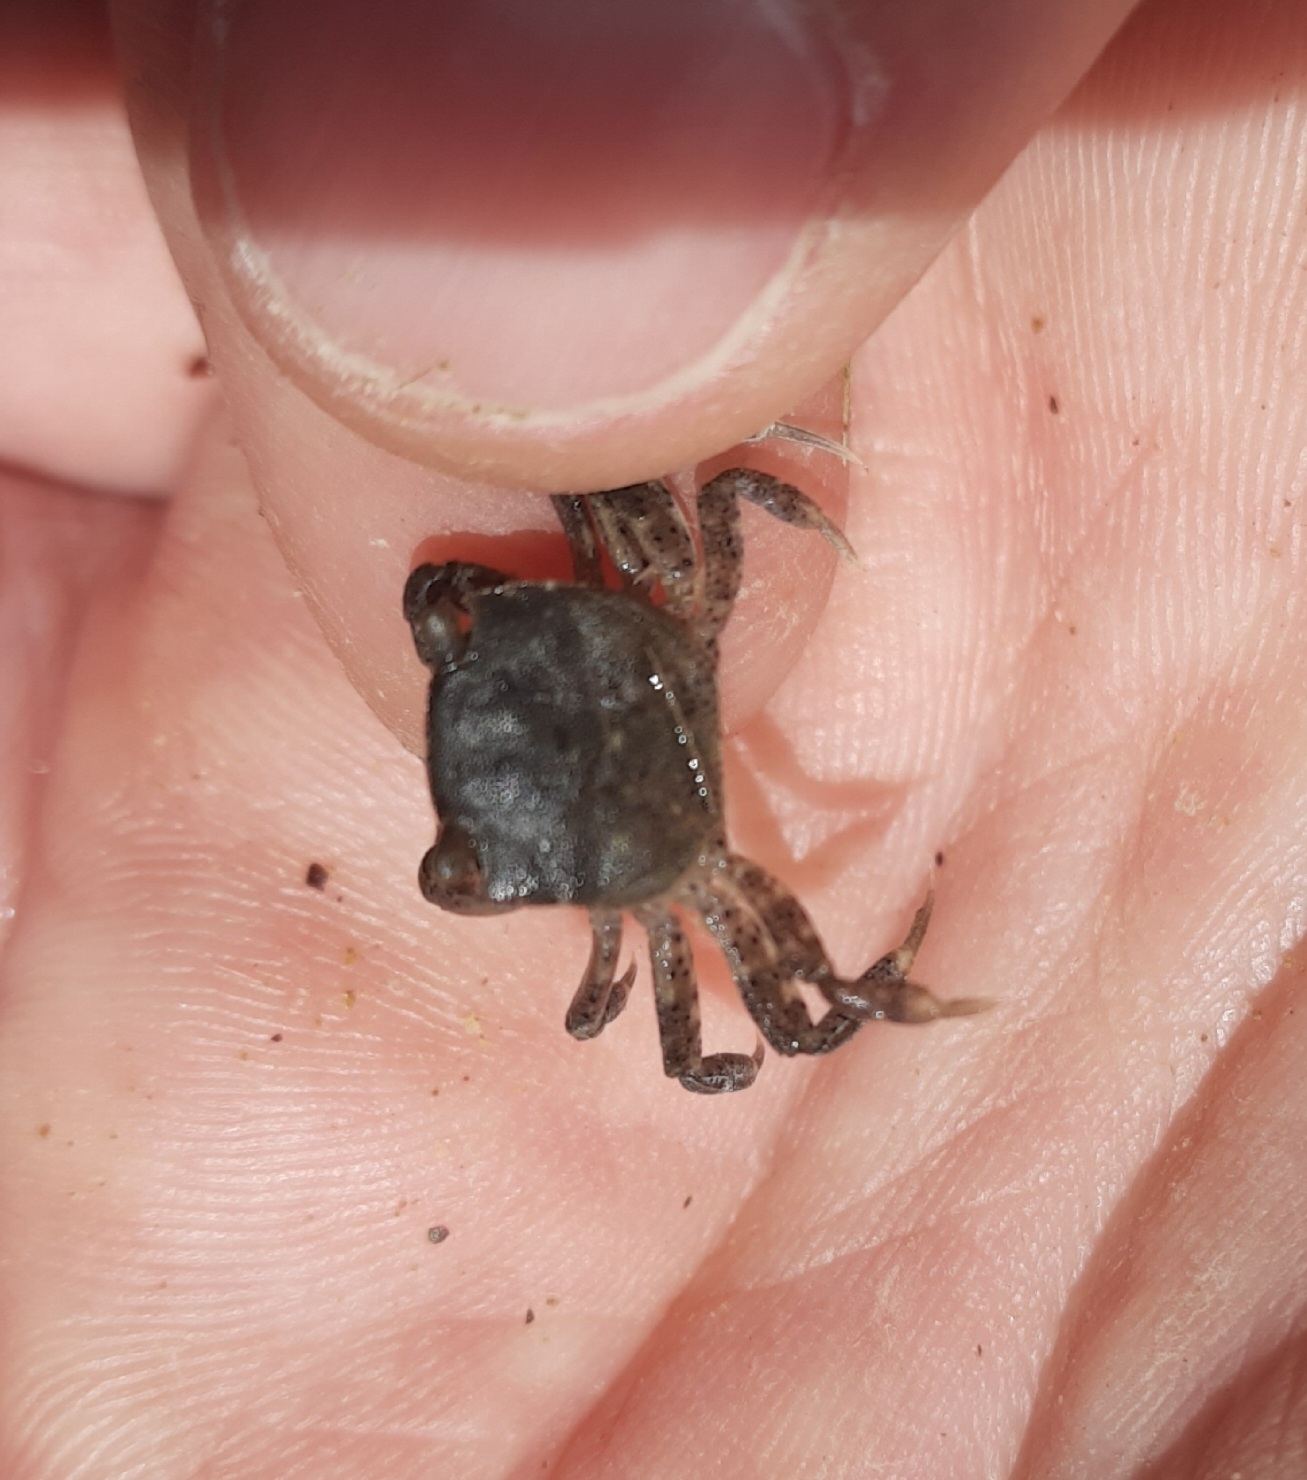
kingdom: Animalia
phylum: Arthropoda
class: Malacostraca
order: Decapoda
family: Varunidae
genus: Hemigrapsus
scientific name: Hemigrapsus crenulatus
